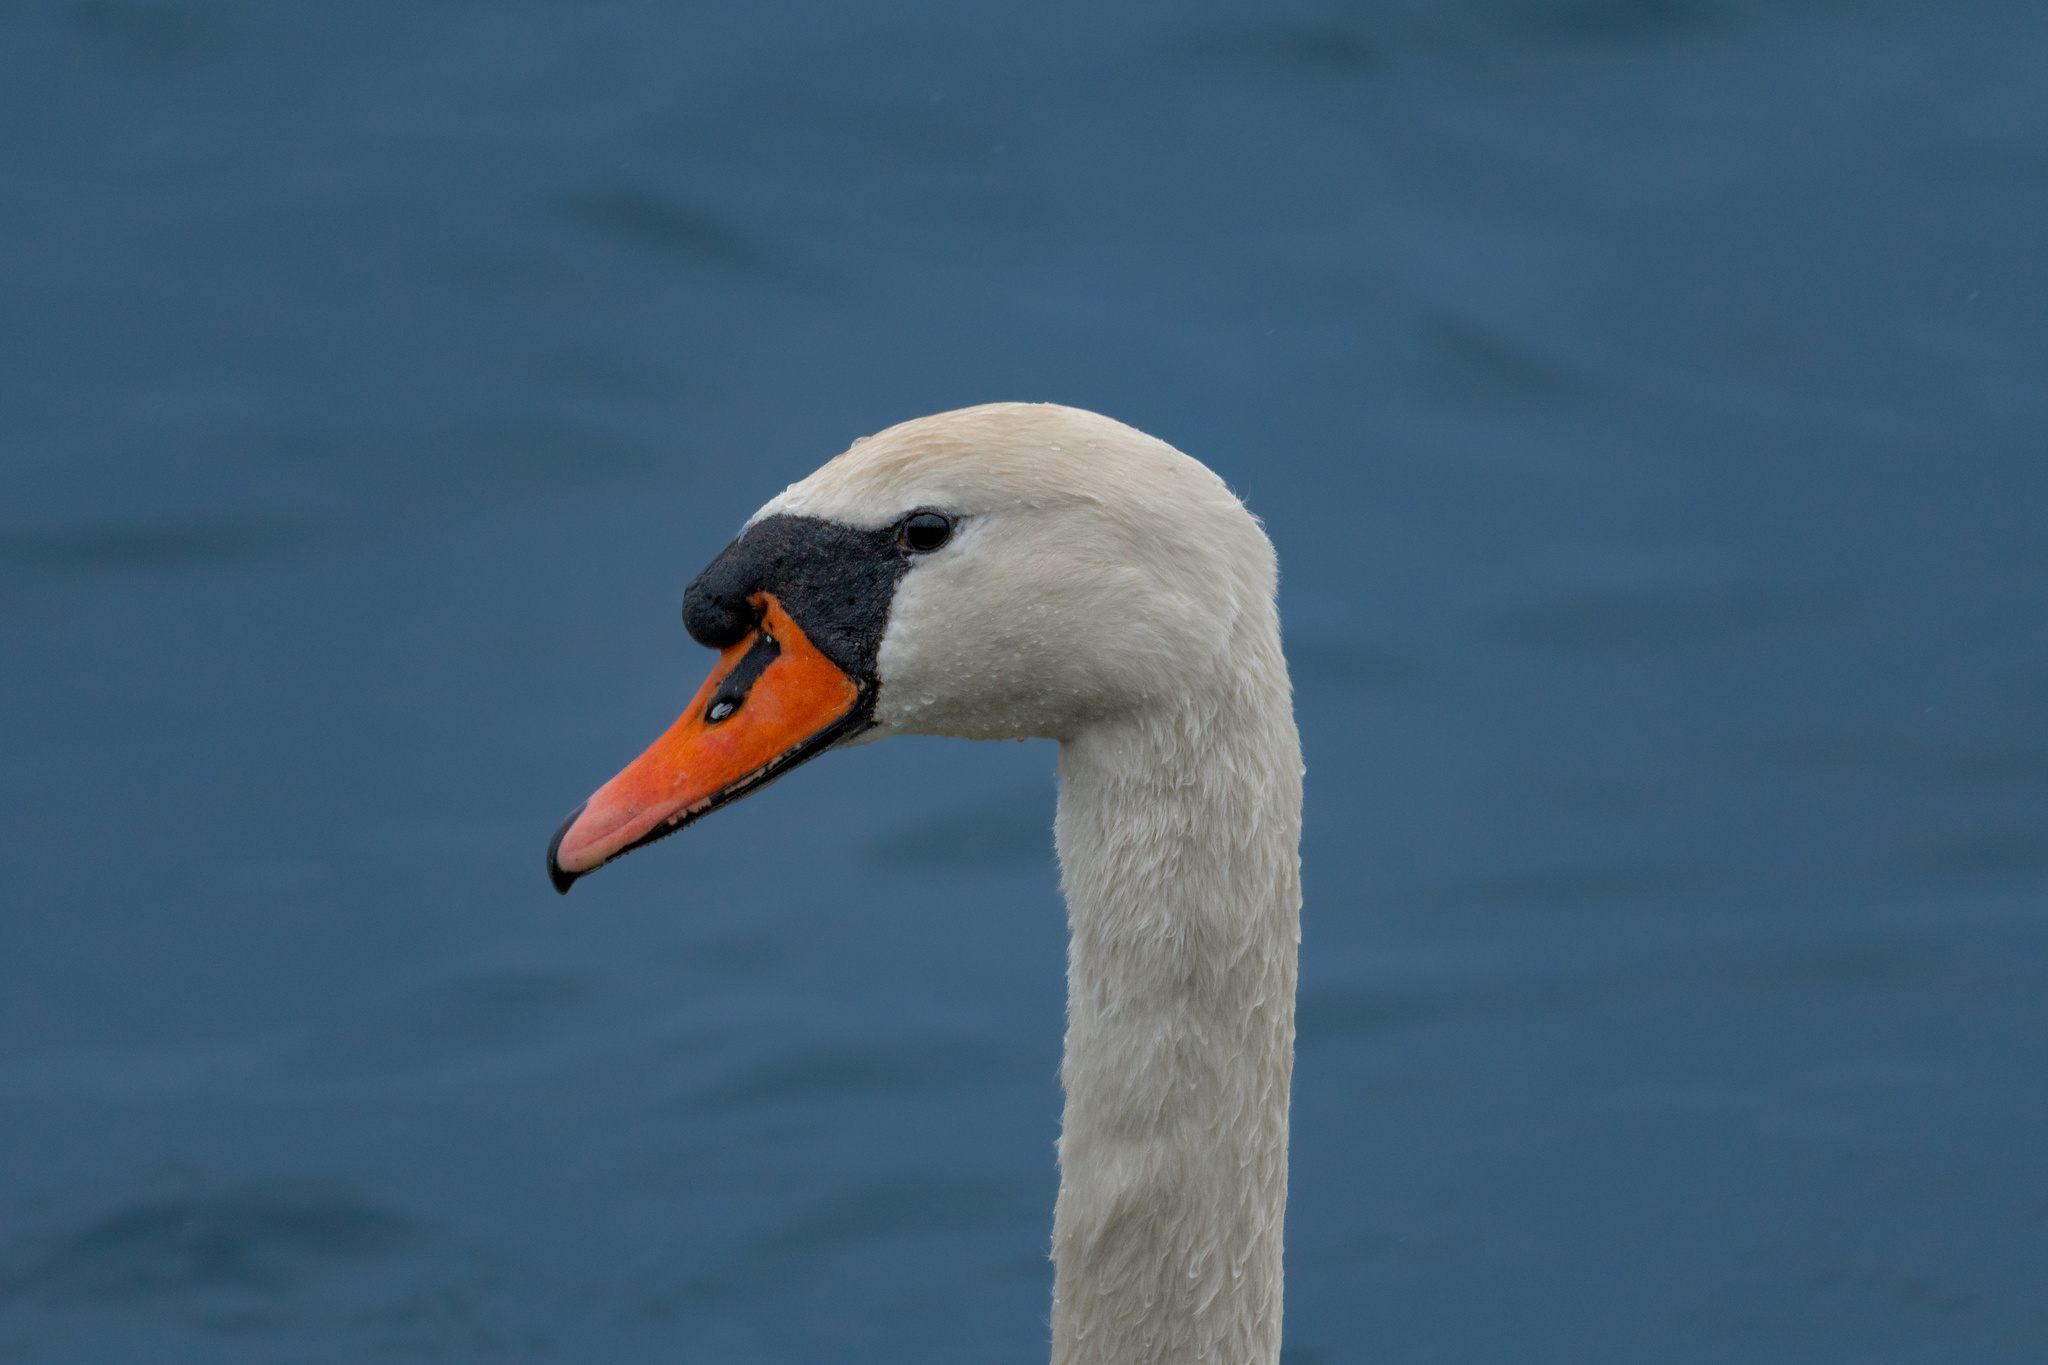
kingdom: Animalia
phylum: Chordata
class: Aves
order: Anseriformes
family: Anatidae
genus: Cygnus
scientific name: Cygnus olor
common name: Mute swan
